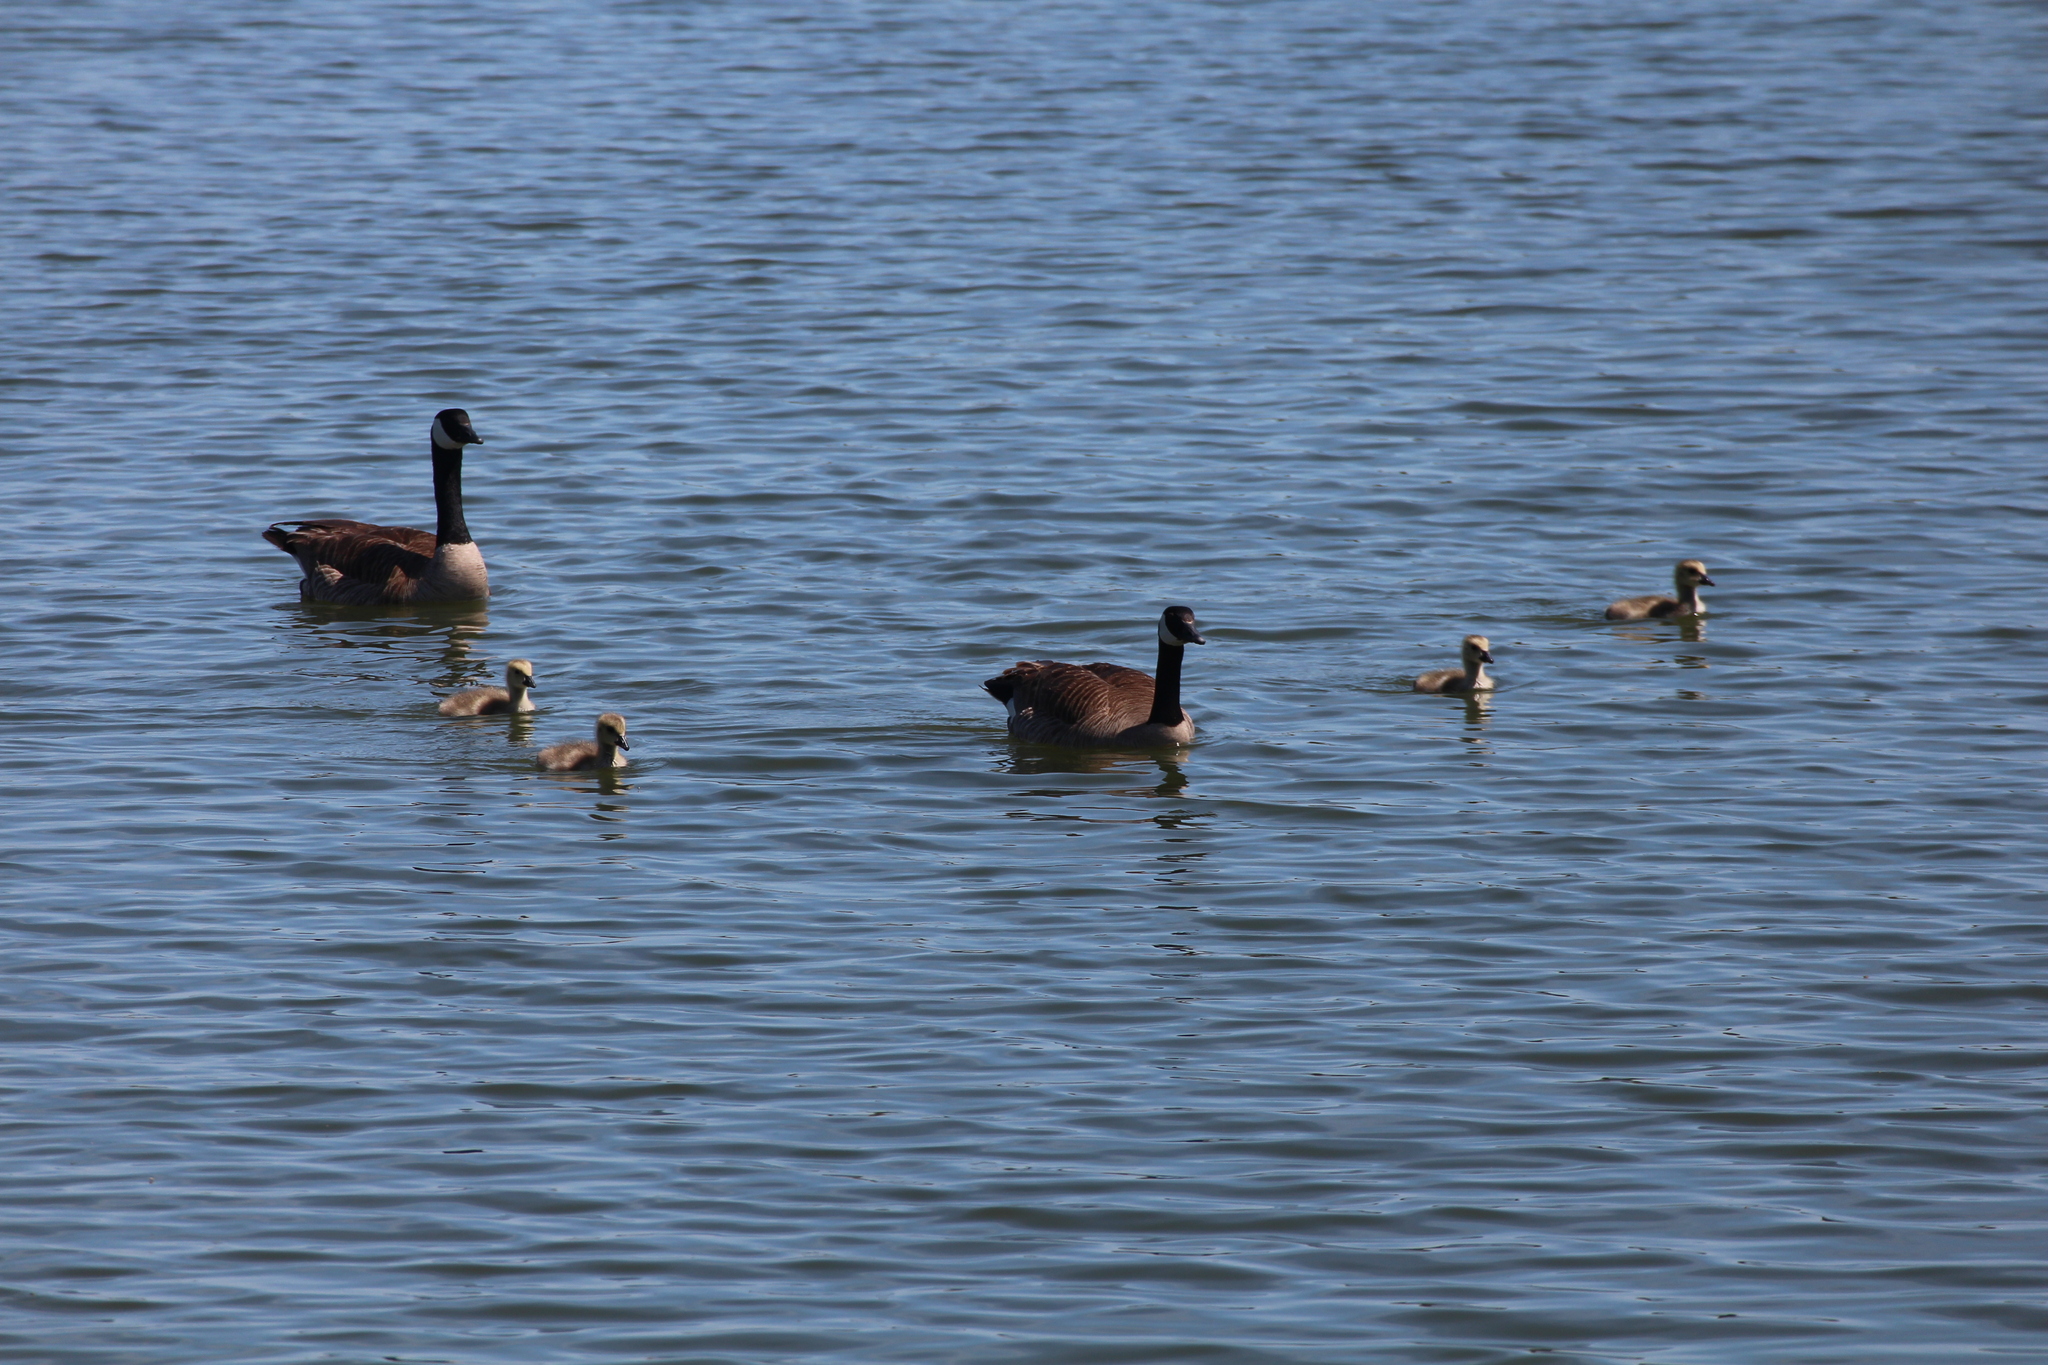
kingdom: Animalia
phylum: Chordata
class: Aves
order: Anseriformes
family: Anatidae
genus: Branta
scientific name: Branta canadensis
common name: Canada goose
